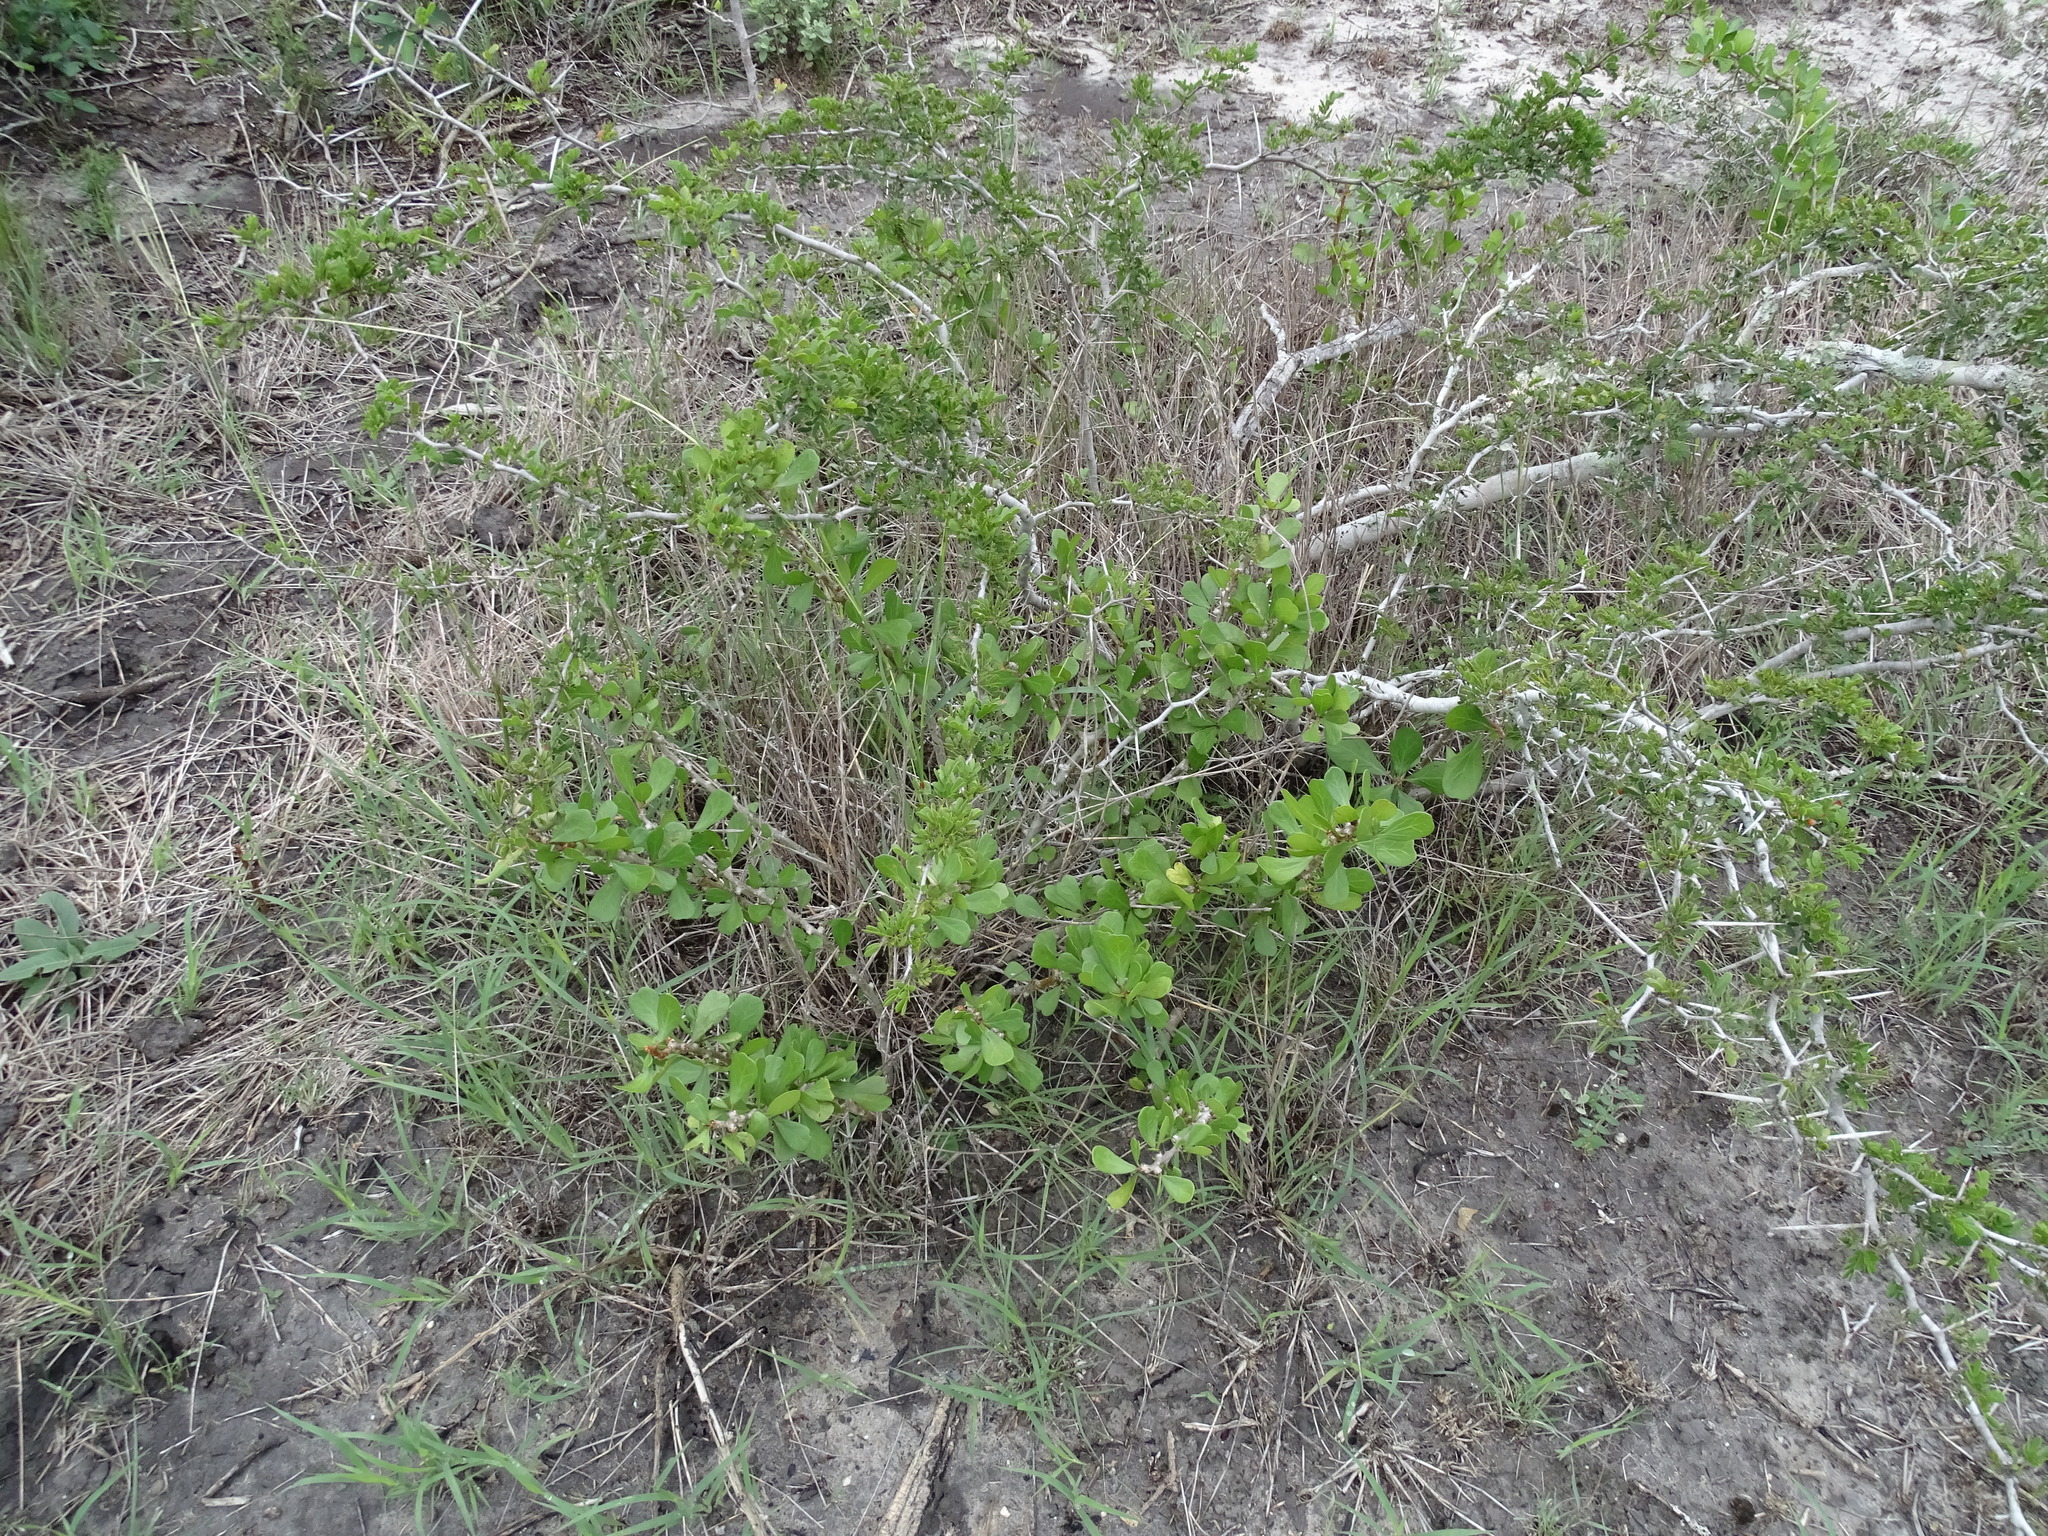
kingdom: Plantae
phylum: Tracheophyta
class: Magnoliopsida
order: Malpighiales
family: Euphorbiaceae
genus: Jatropha
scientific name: Jatropha dioica
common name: Leatherstem
